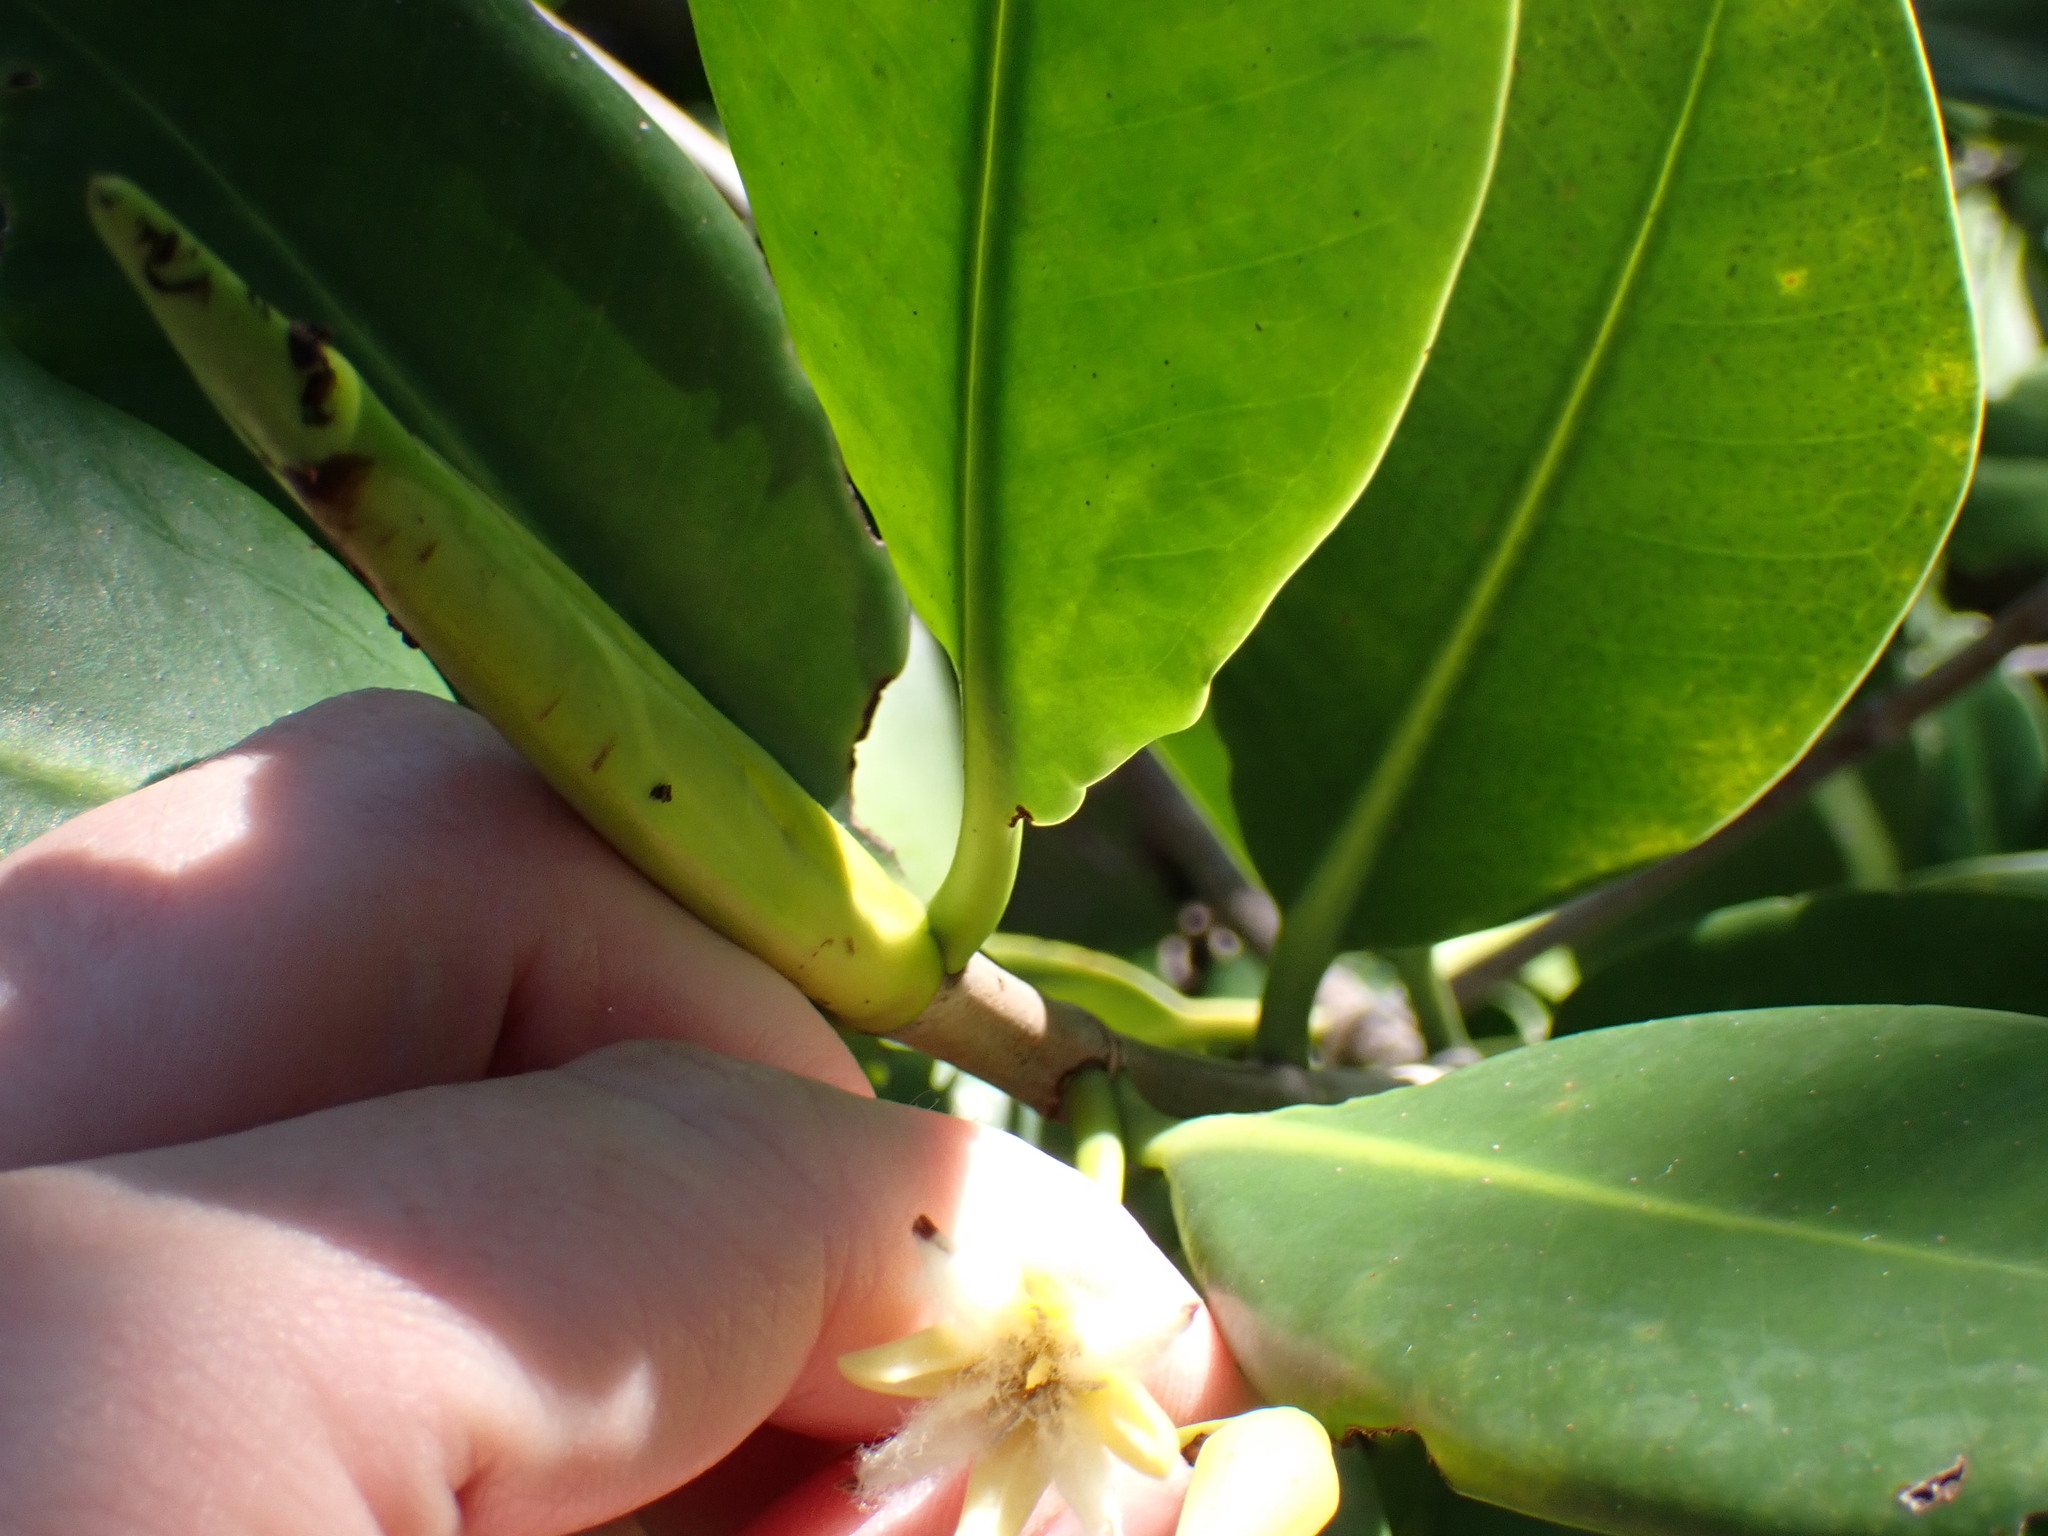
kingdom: Plantae
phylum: Tracheophyta
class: Magnoliopsida
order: Malpighiales
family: Rhizophoraceae
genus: Rhizophora
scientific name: Rhizophora mangle
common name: Red mangrove
